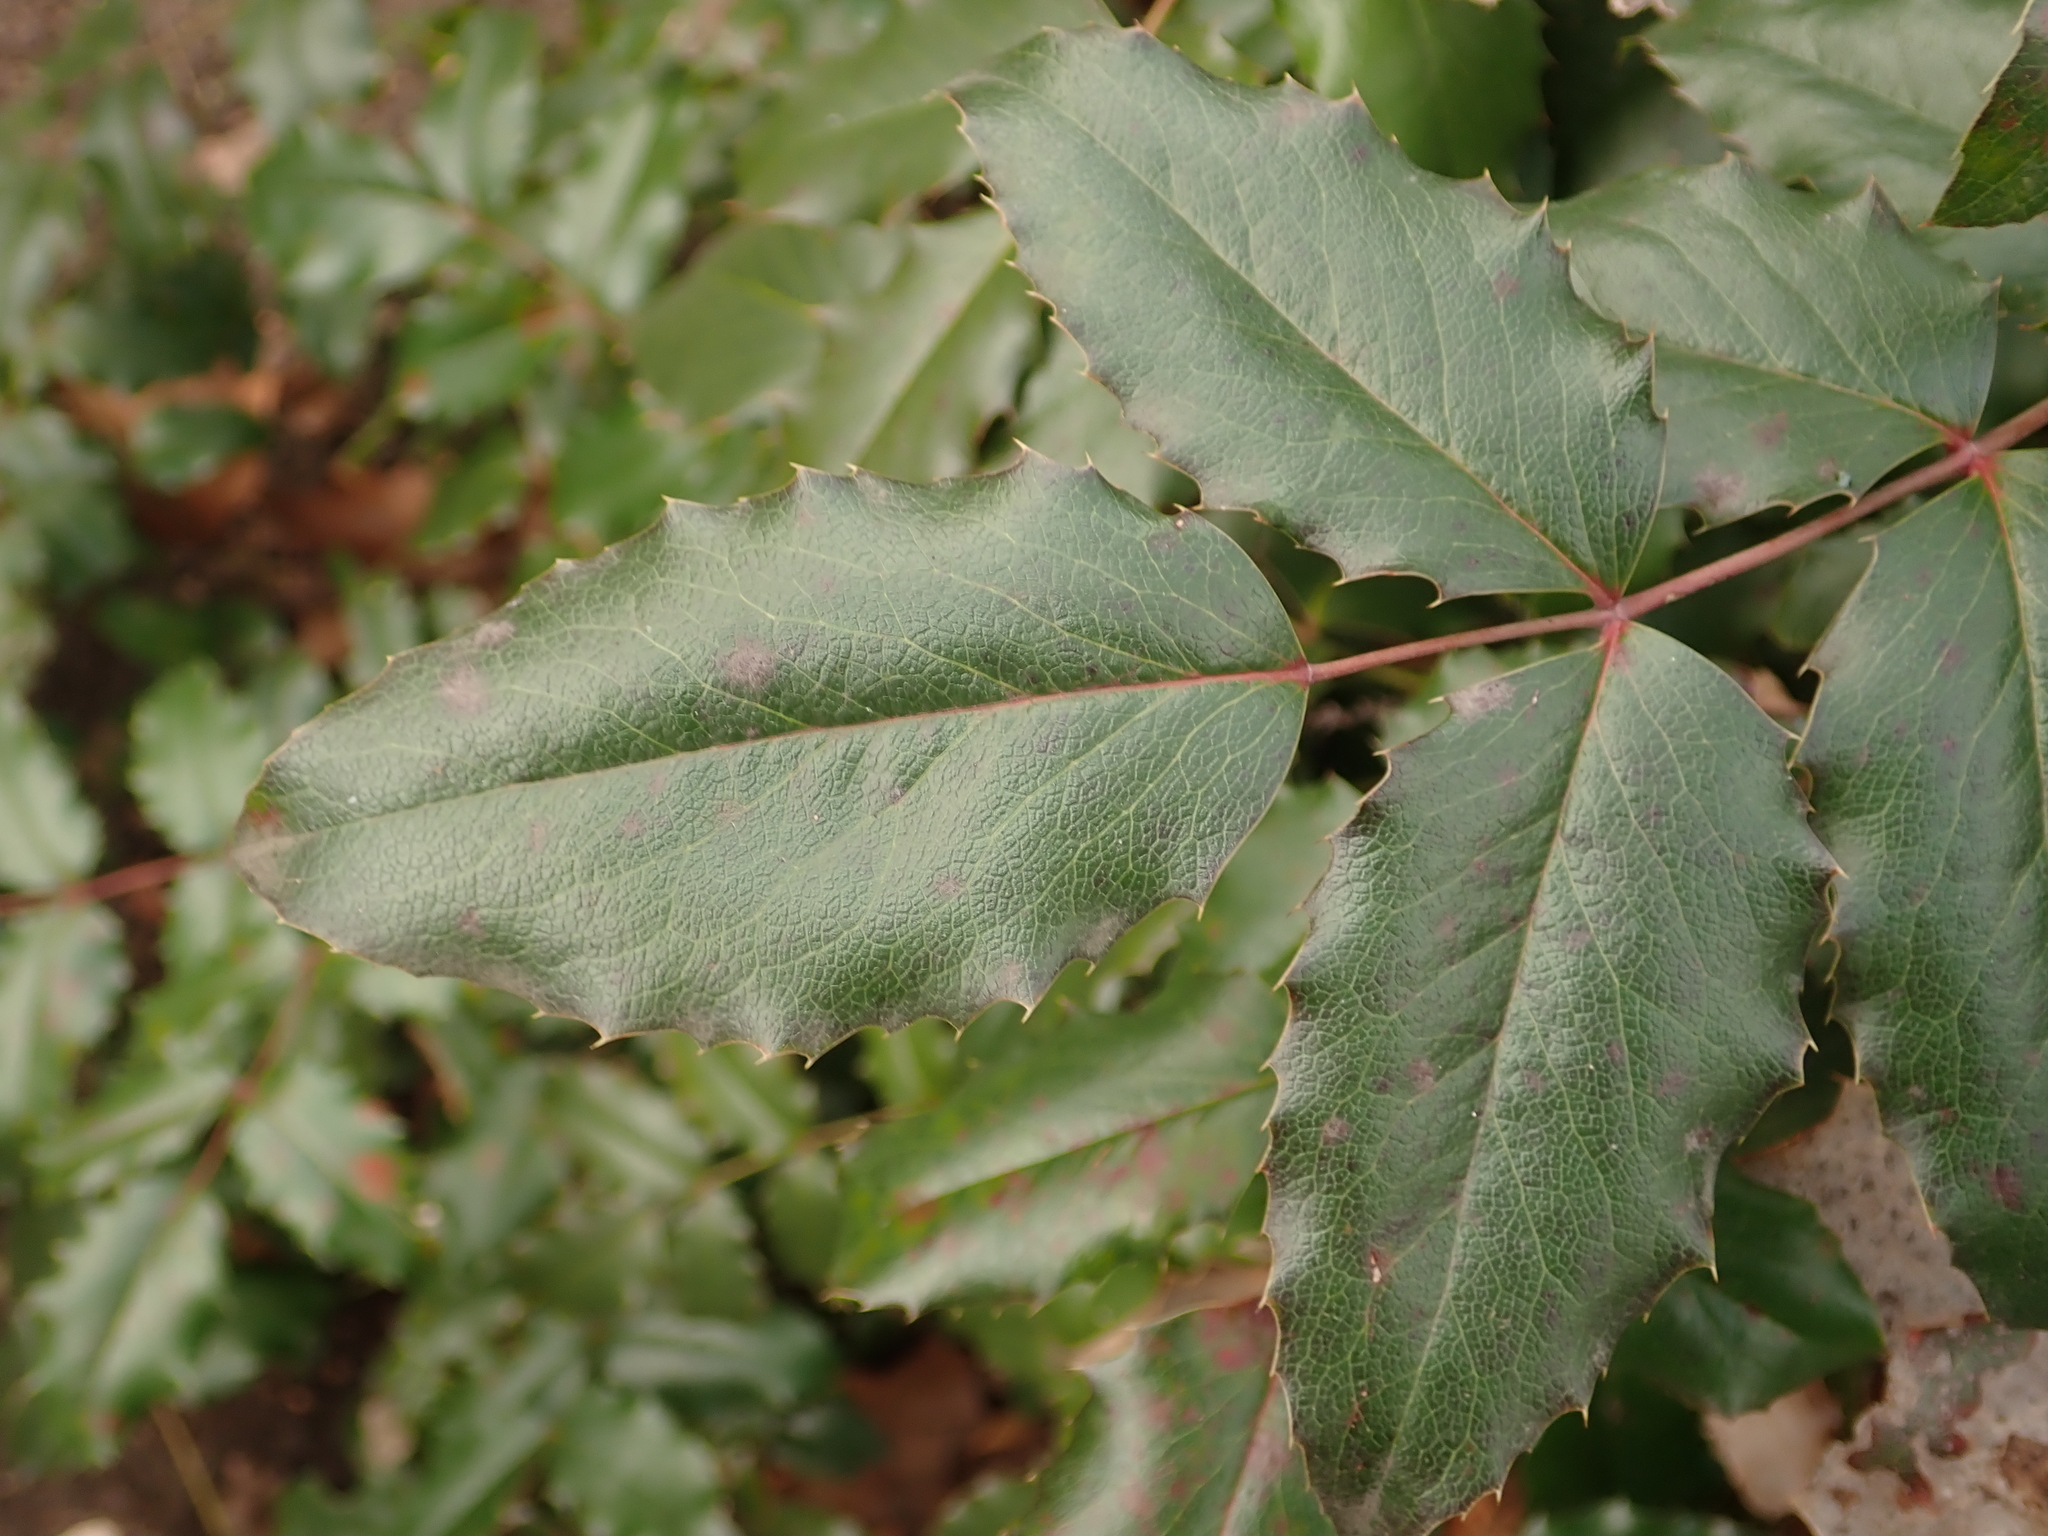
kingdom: Plantae
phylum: Tracheophyta
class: Magnoliopsida
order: Ranunculales
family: Berberidaceae
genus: Mahonia
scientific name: Mahonia aquifolium
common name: Oregon-grape
